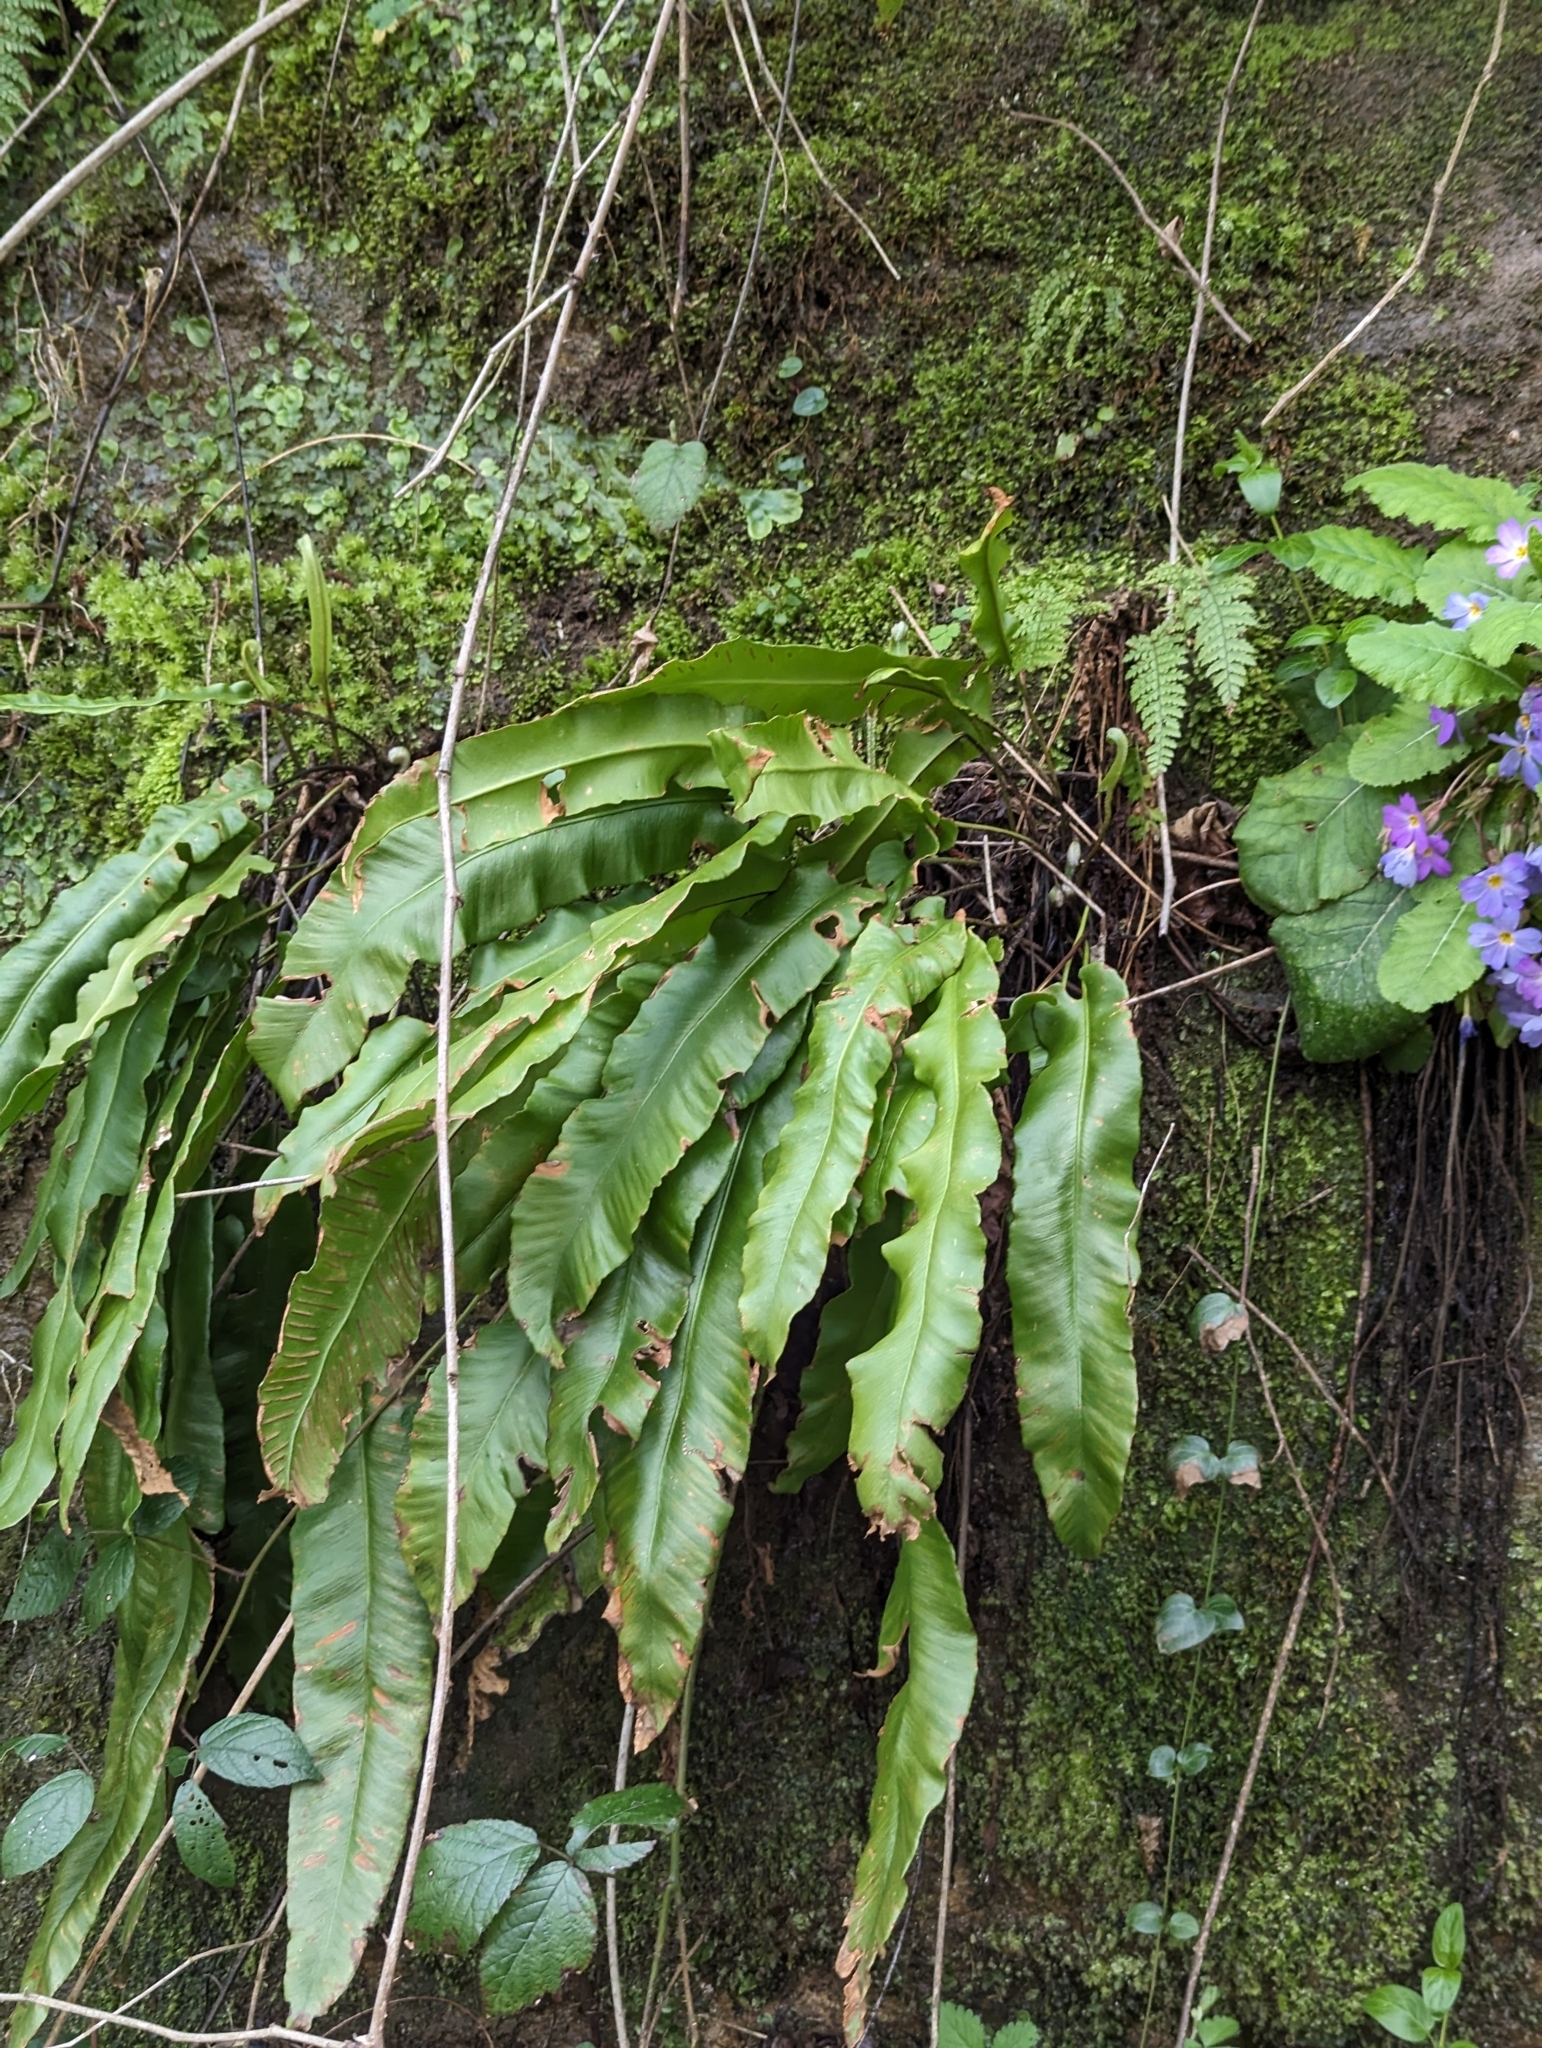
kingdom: Plantae
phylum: Tracheophyta
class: Polypodiopsida
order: Polypodiales
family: Aspleniaceae
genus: Asplenium
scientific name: Asplenium scolopendrium
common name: Hart's-tongue fern
